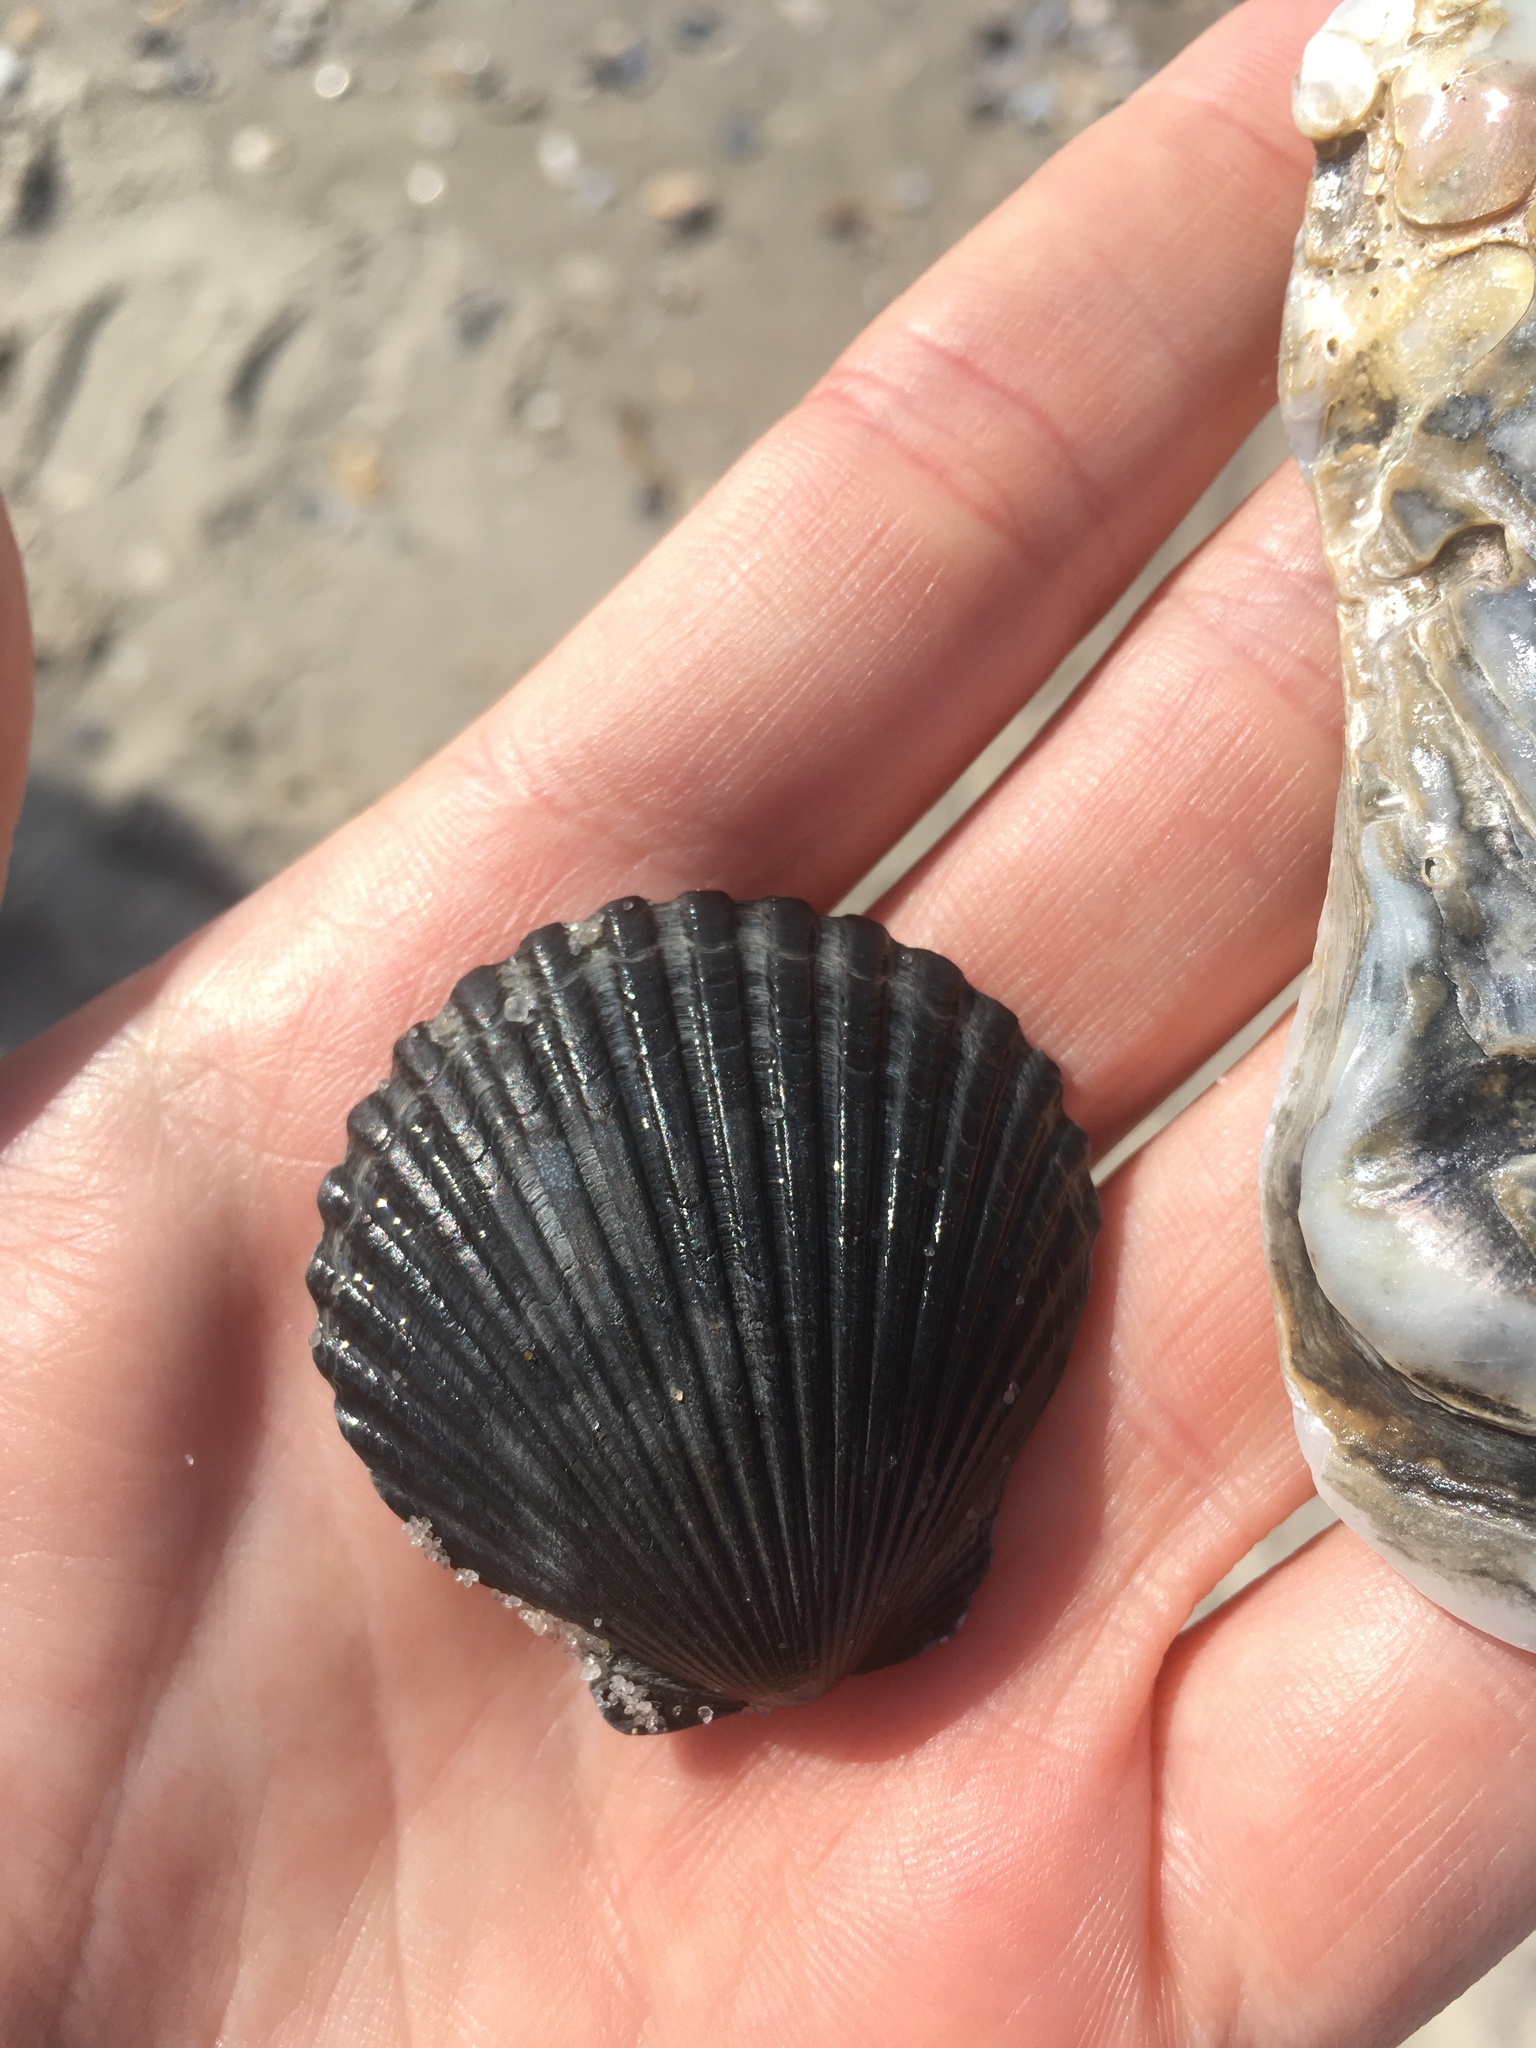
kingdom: Animalia
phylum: Mollusca
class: Bivalvia
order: Pectinida
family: Pectinidae
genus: Argopecten
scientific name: Argopecten irradians
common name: Atlantic bay scallop
